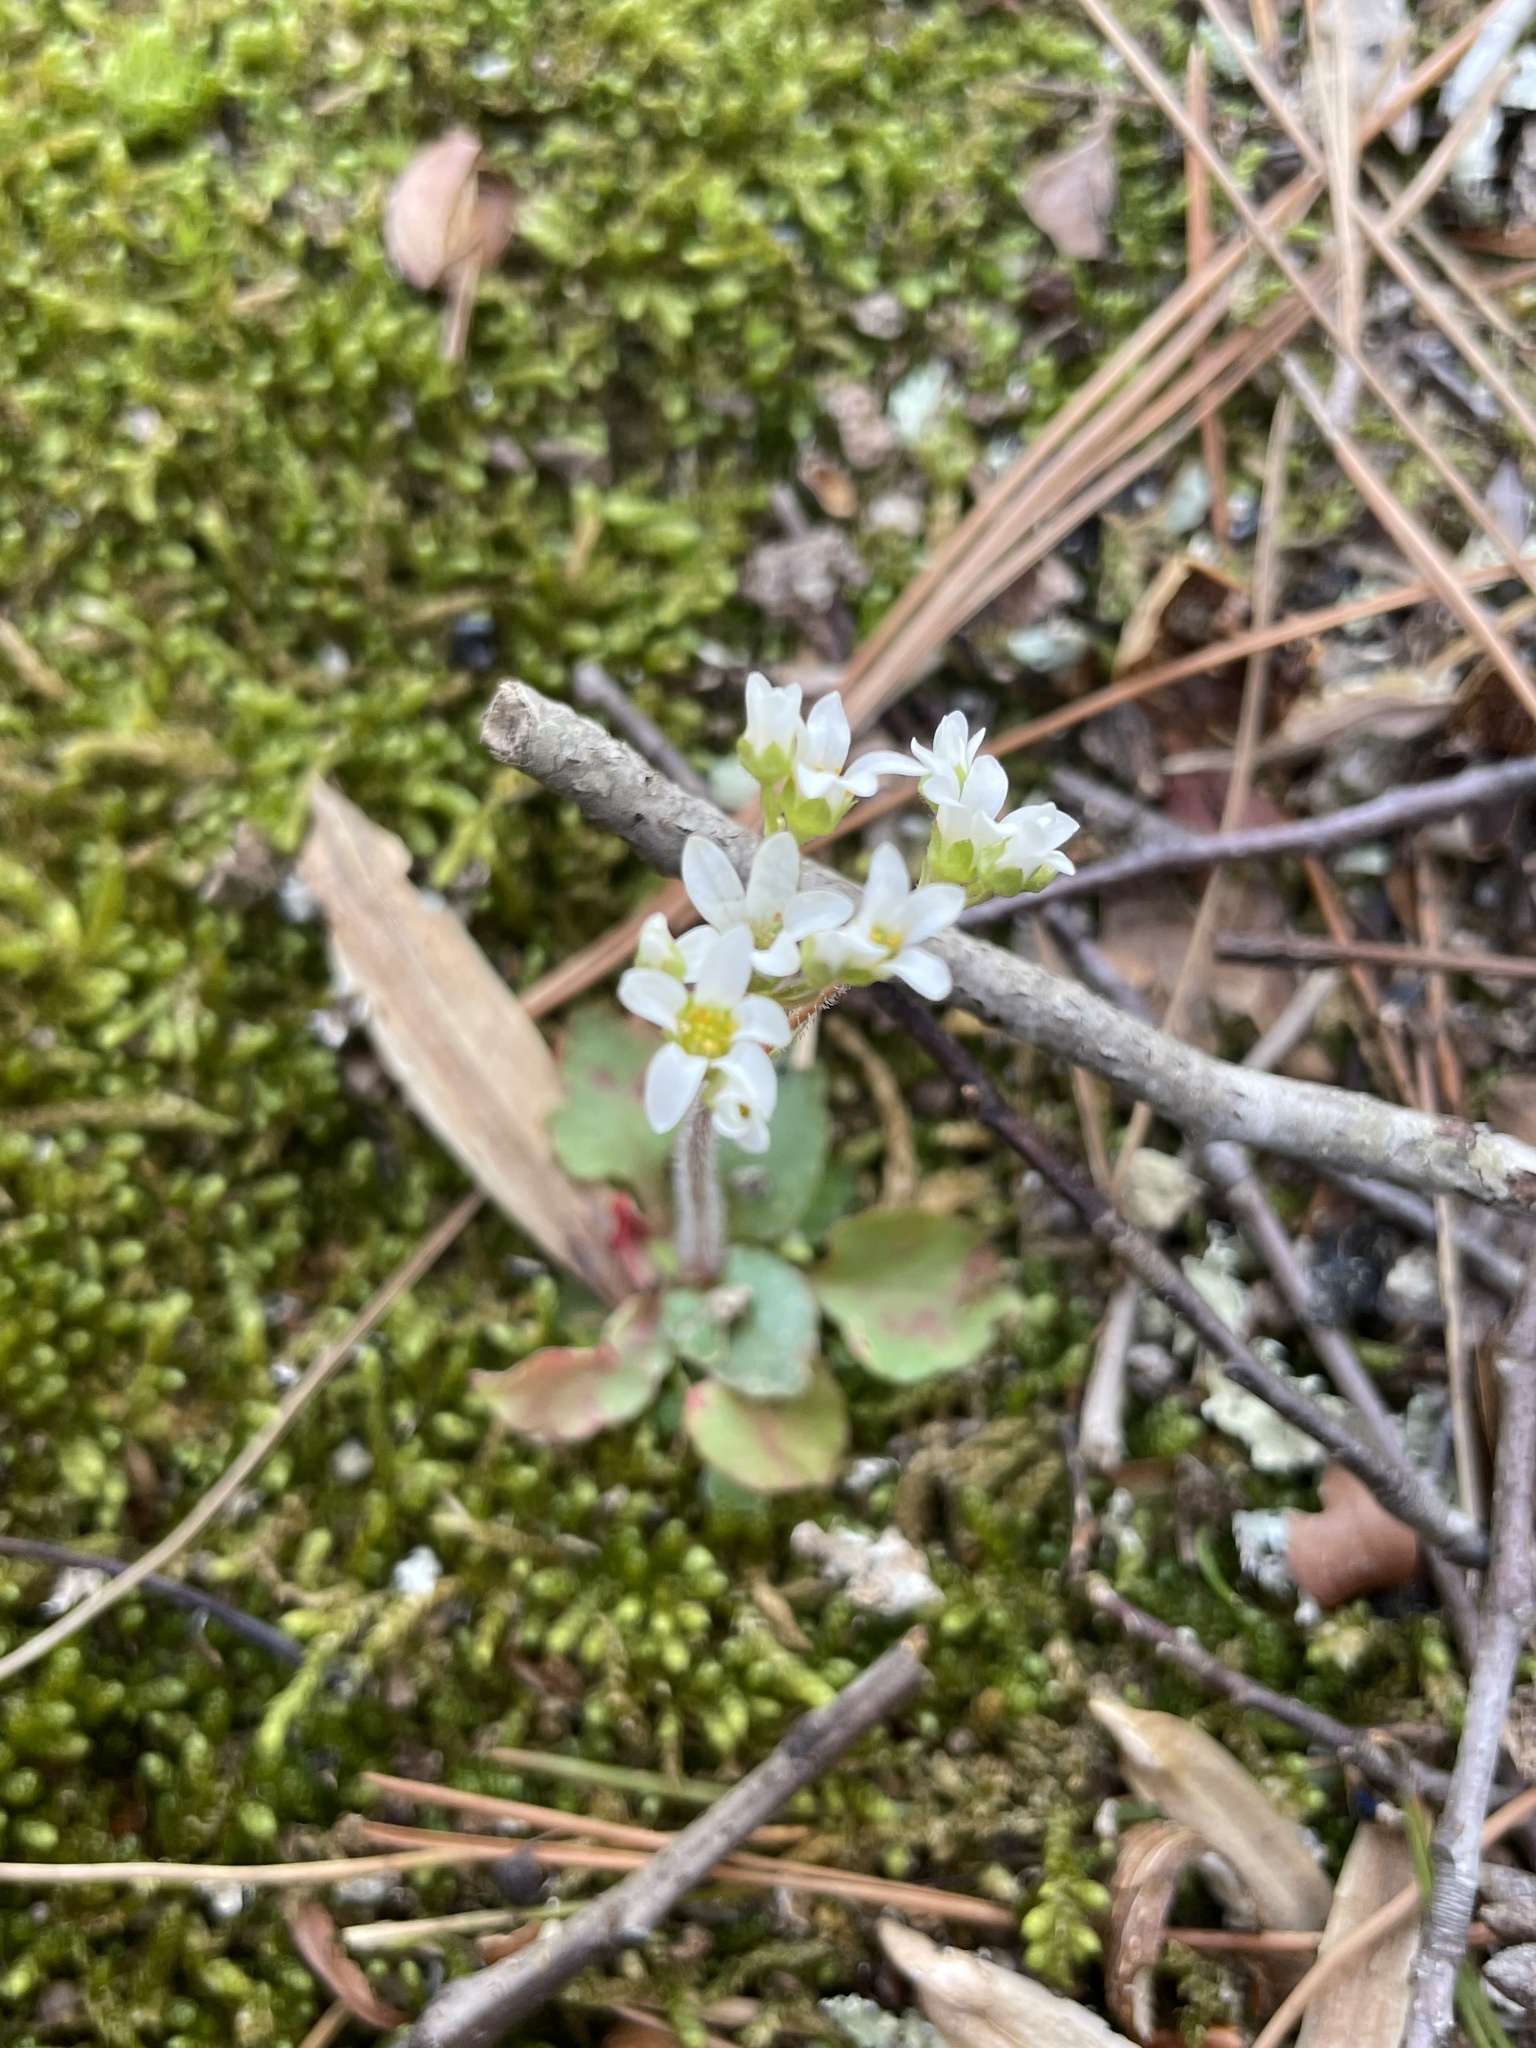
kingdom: Plantae
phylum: Tracheophyta
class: Magnoliopsida
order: Saxifragales
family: Saxifragaceae
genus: Micranthes
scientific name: Micranthes virginiensis
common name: Early saxifrage
